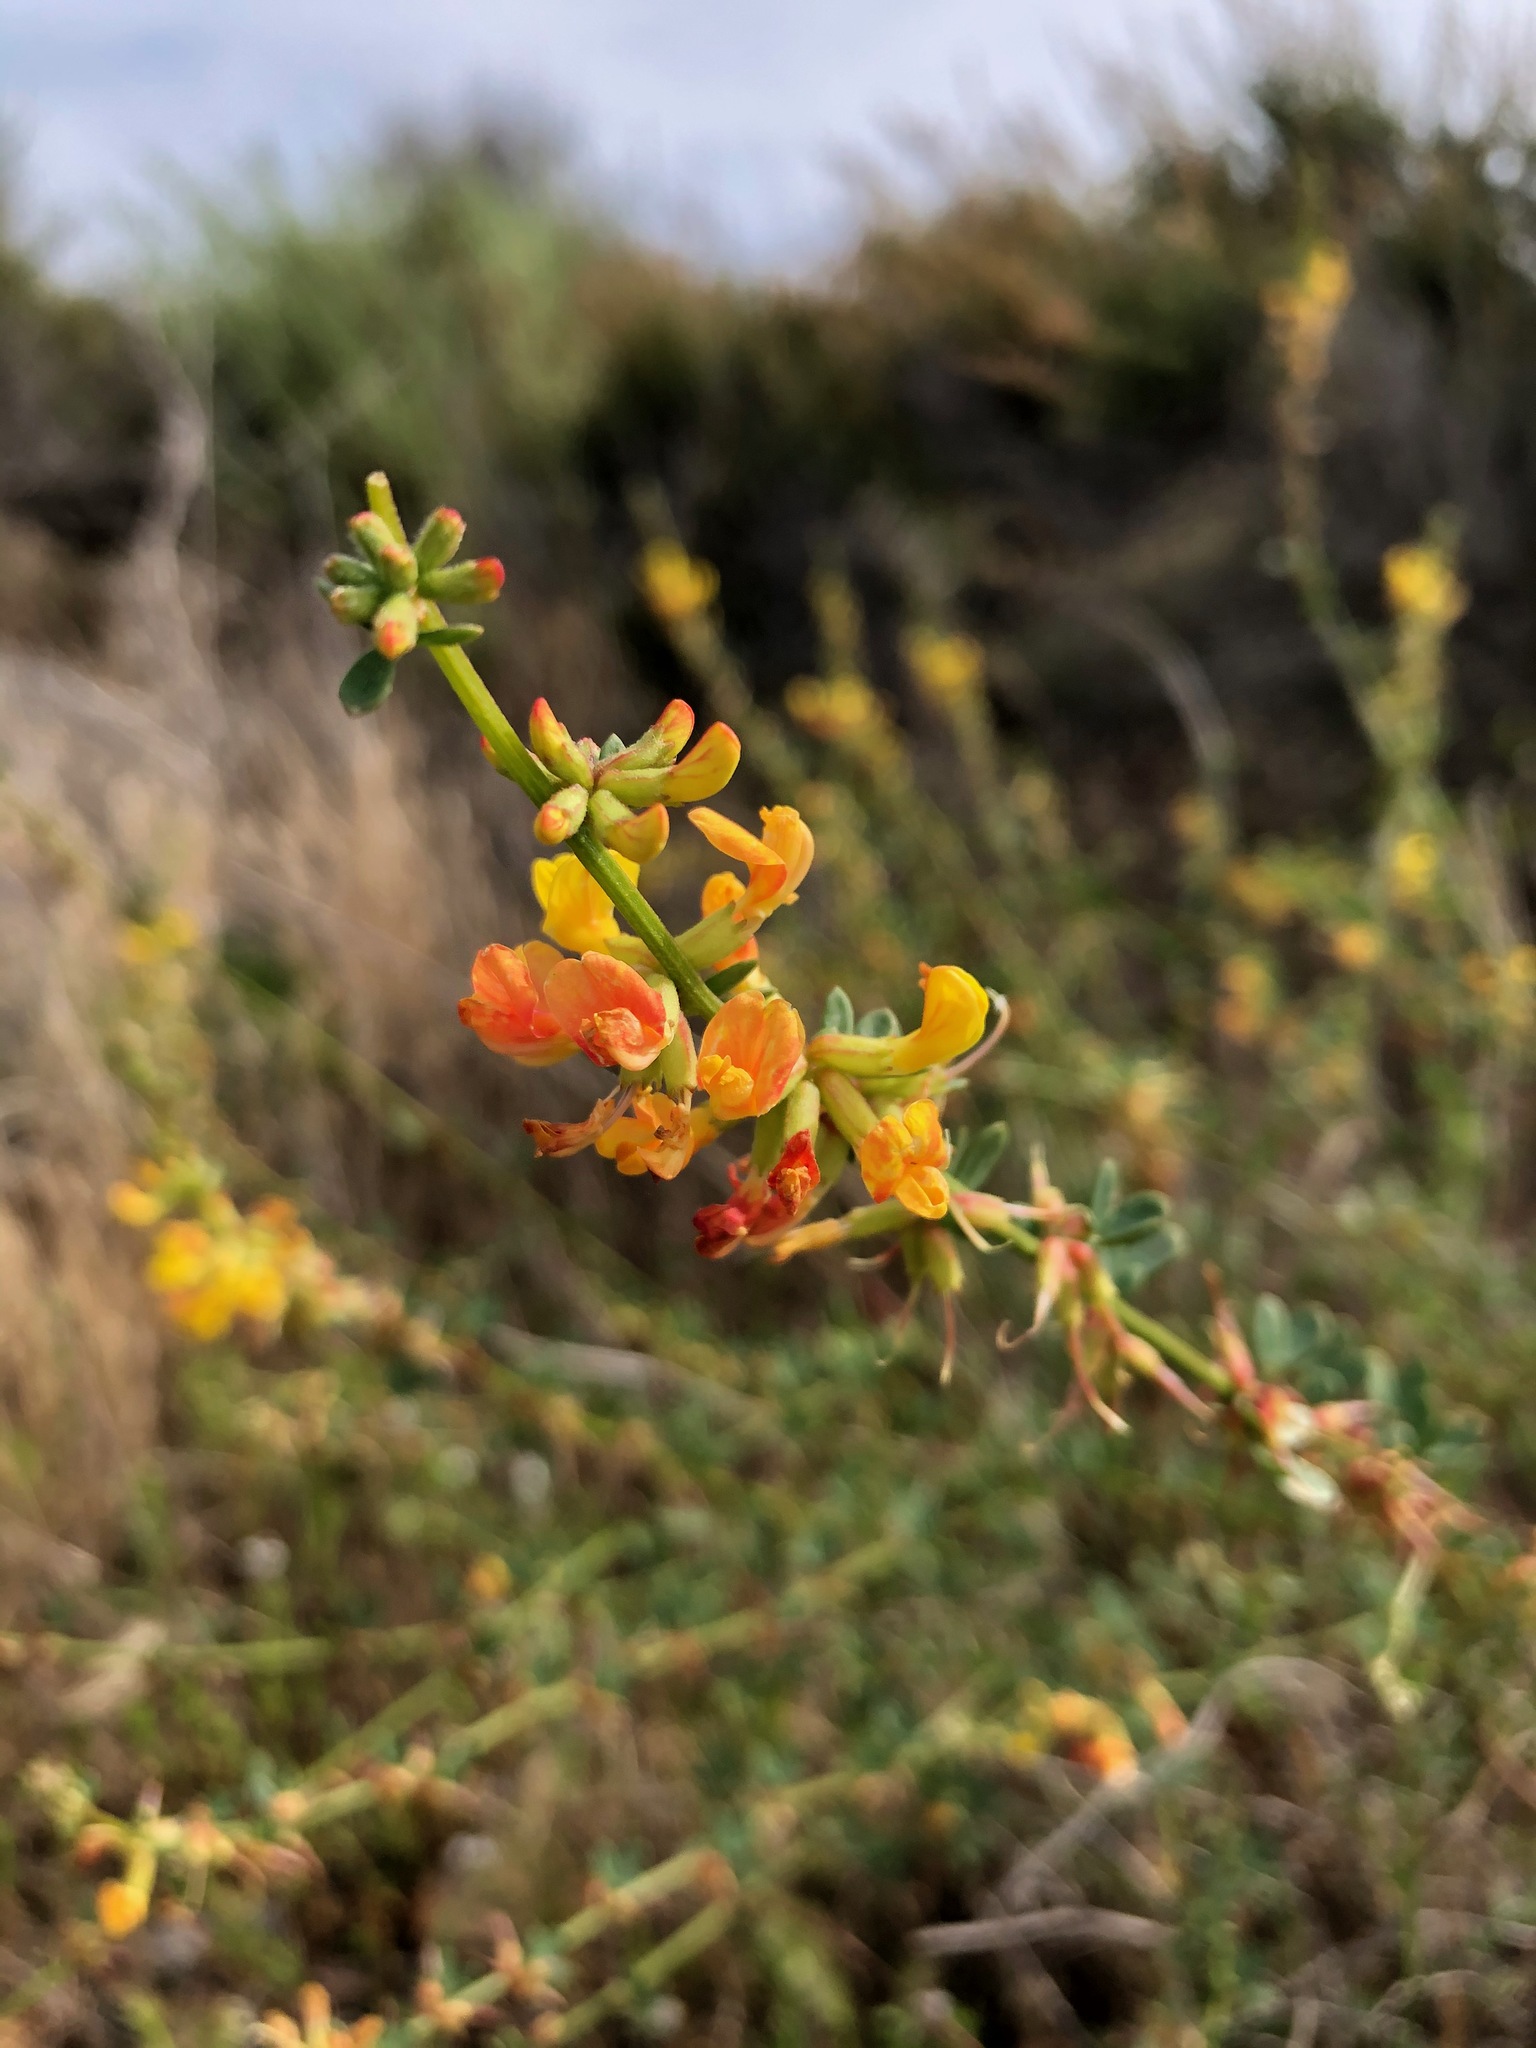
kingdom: Plantae
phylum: Tracheophyta
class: Magnoliopsida
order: Fabales
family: Fabaceae
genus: Acmispon
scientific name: Acmispon watsonii
